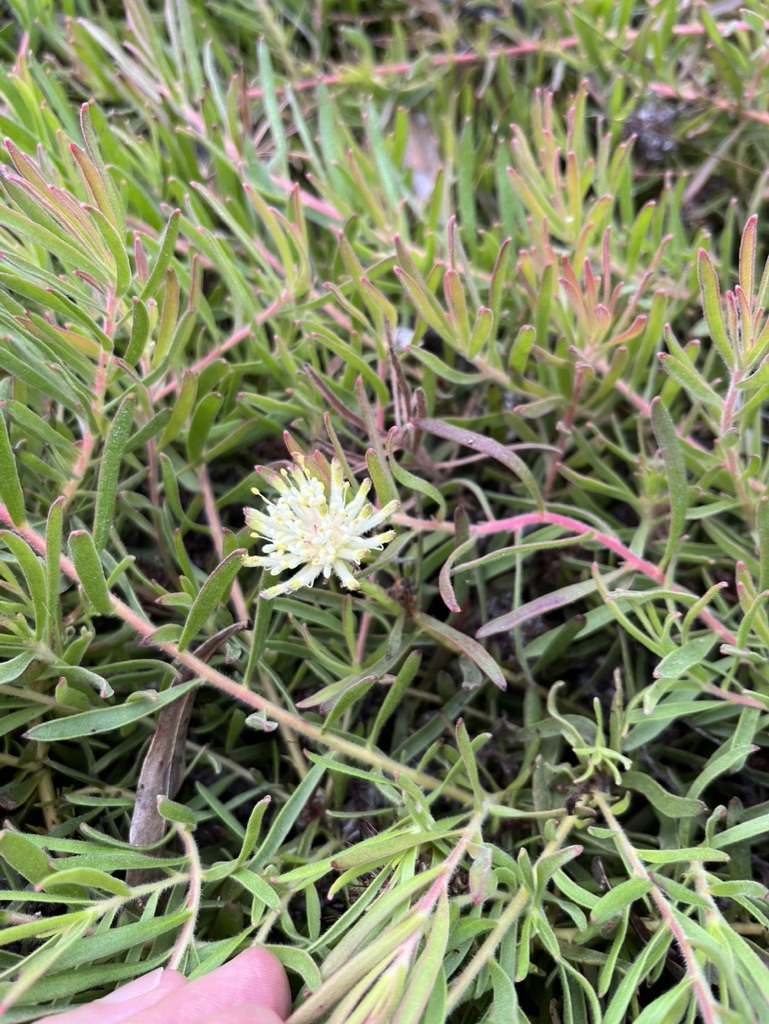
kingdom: Plantae
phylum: Tracheophyta
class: Magnoliopsida
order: Proteales
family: Proteaceae
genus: Leucospermum
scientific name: Leucospermum pedunculatum
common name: White-trailing pincushion
